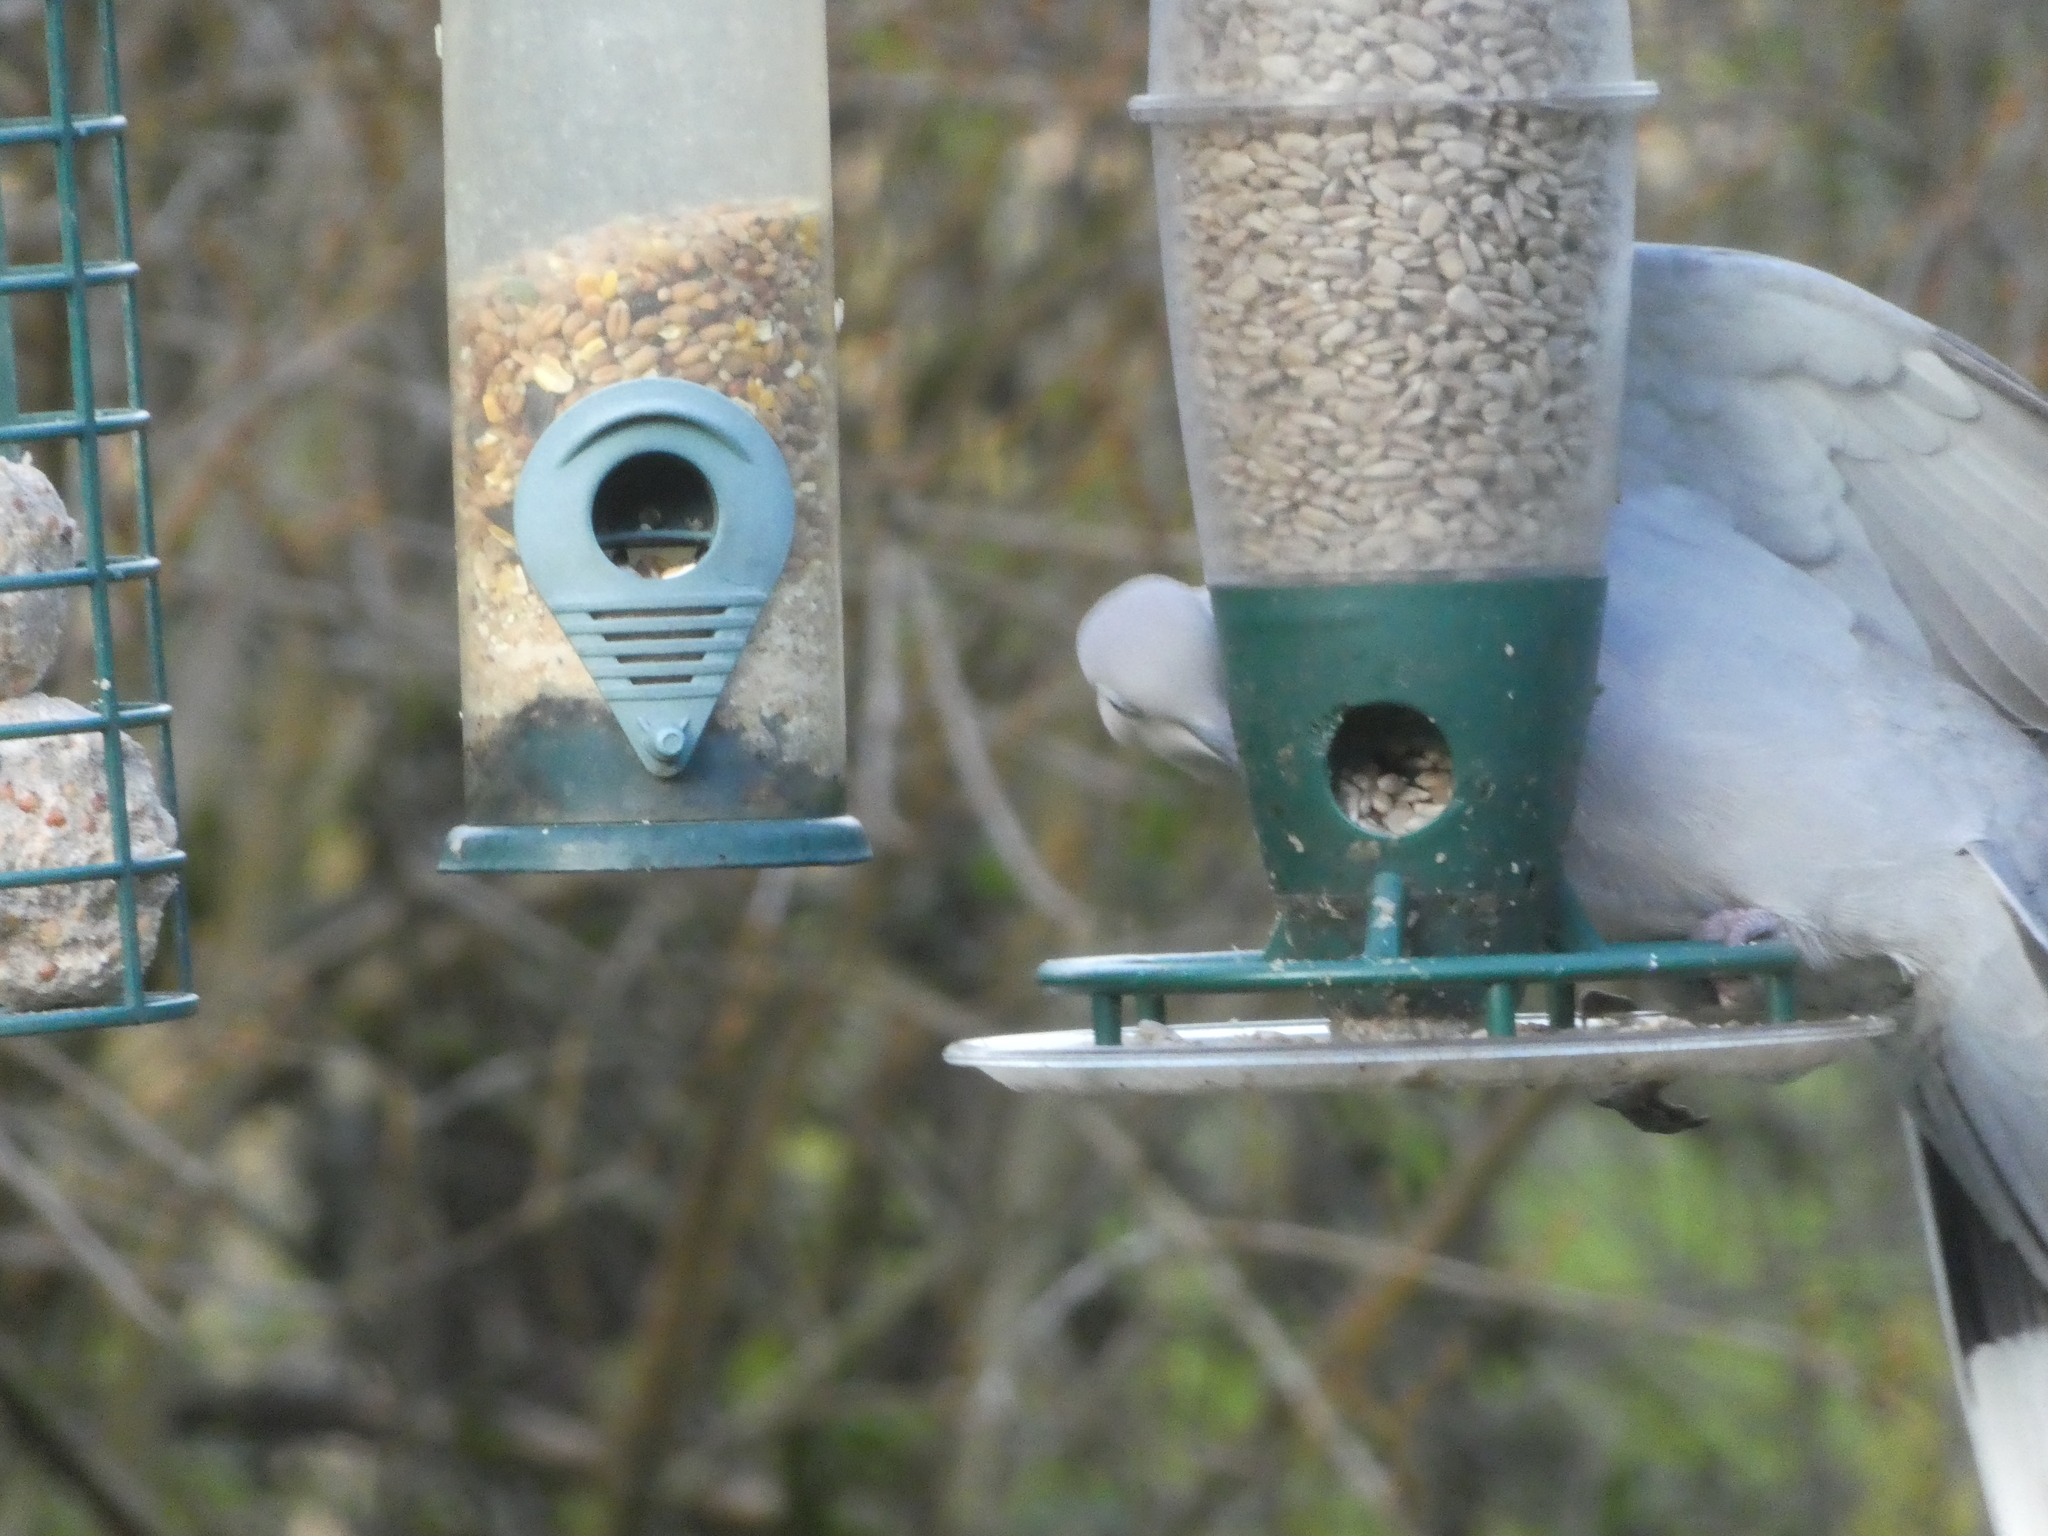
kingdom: Animalia
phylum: Chordata
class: Aves
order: Columbiformes
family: Columbidae
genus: Columba
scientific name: Columba palumbus
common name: Common wood pigeon
